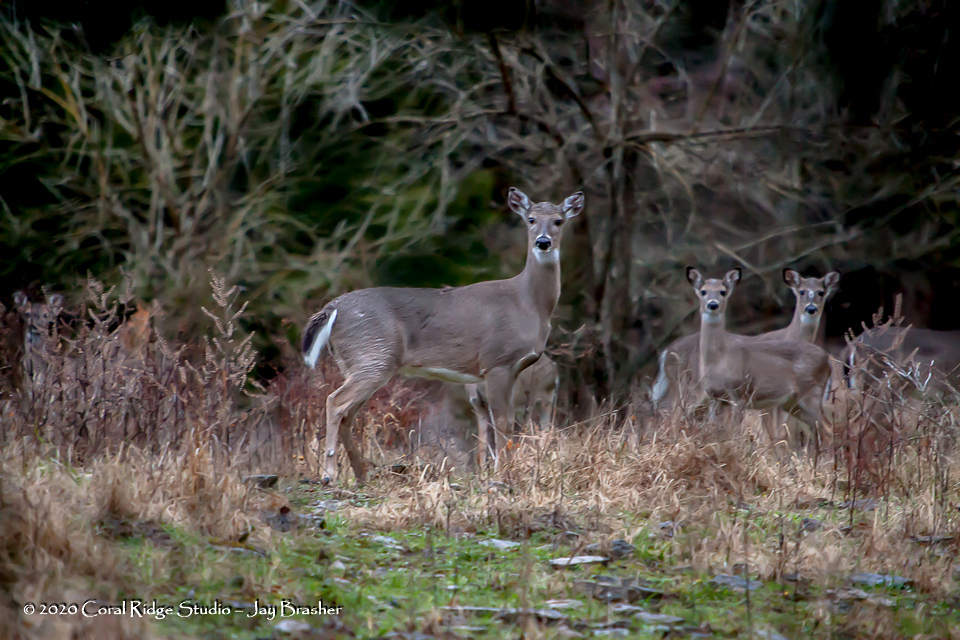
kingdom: Animalia
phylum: Chordata
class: Mammalia
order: Artiodactyla
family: Cervidae
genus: Odocoileus
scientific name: Odocoileus virginianus
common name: White-tailed deer
